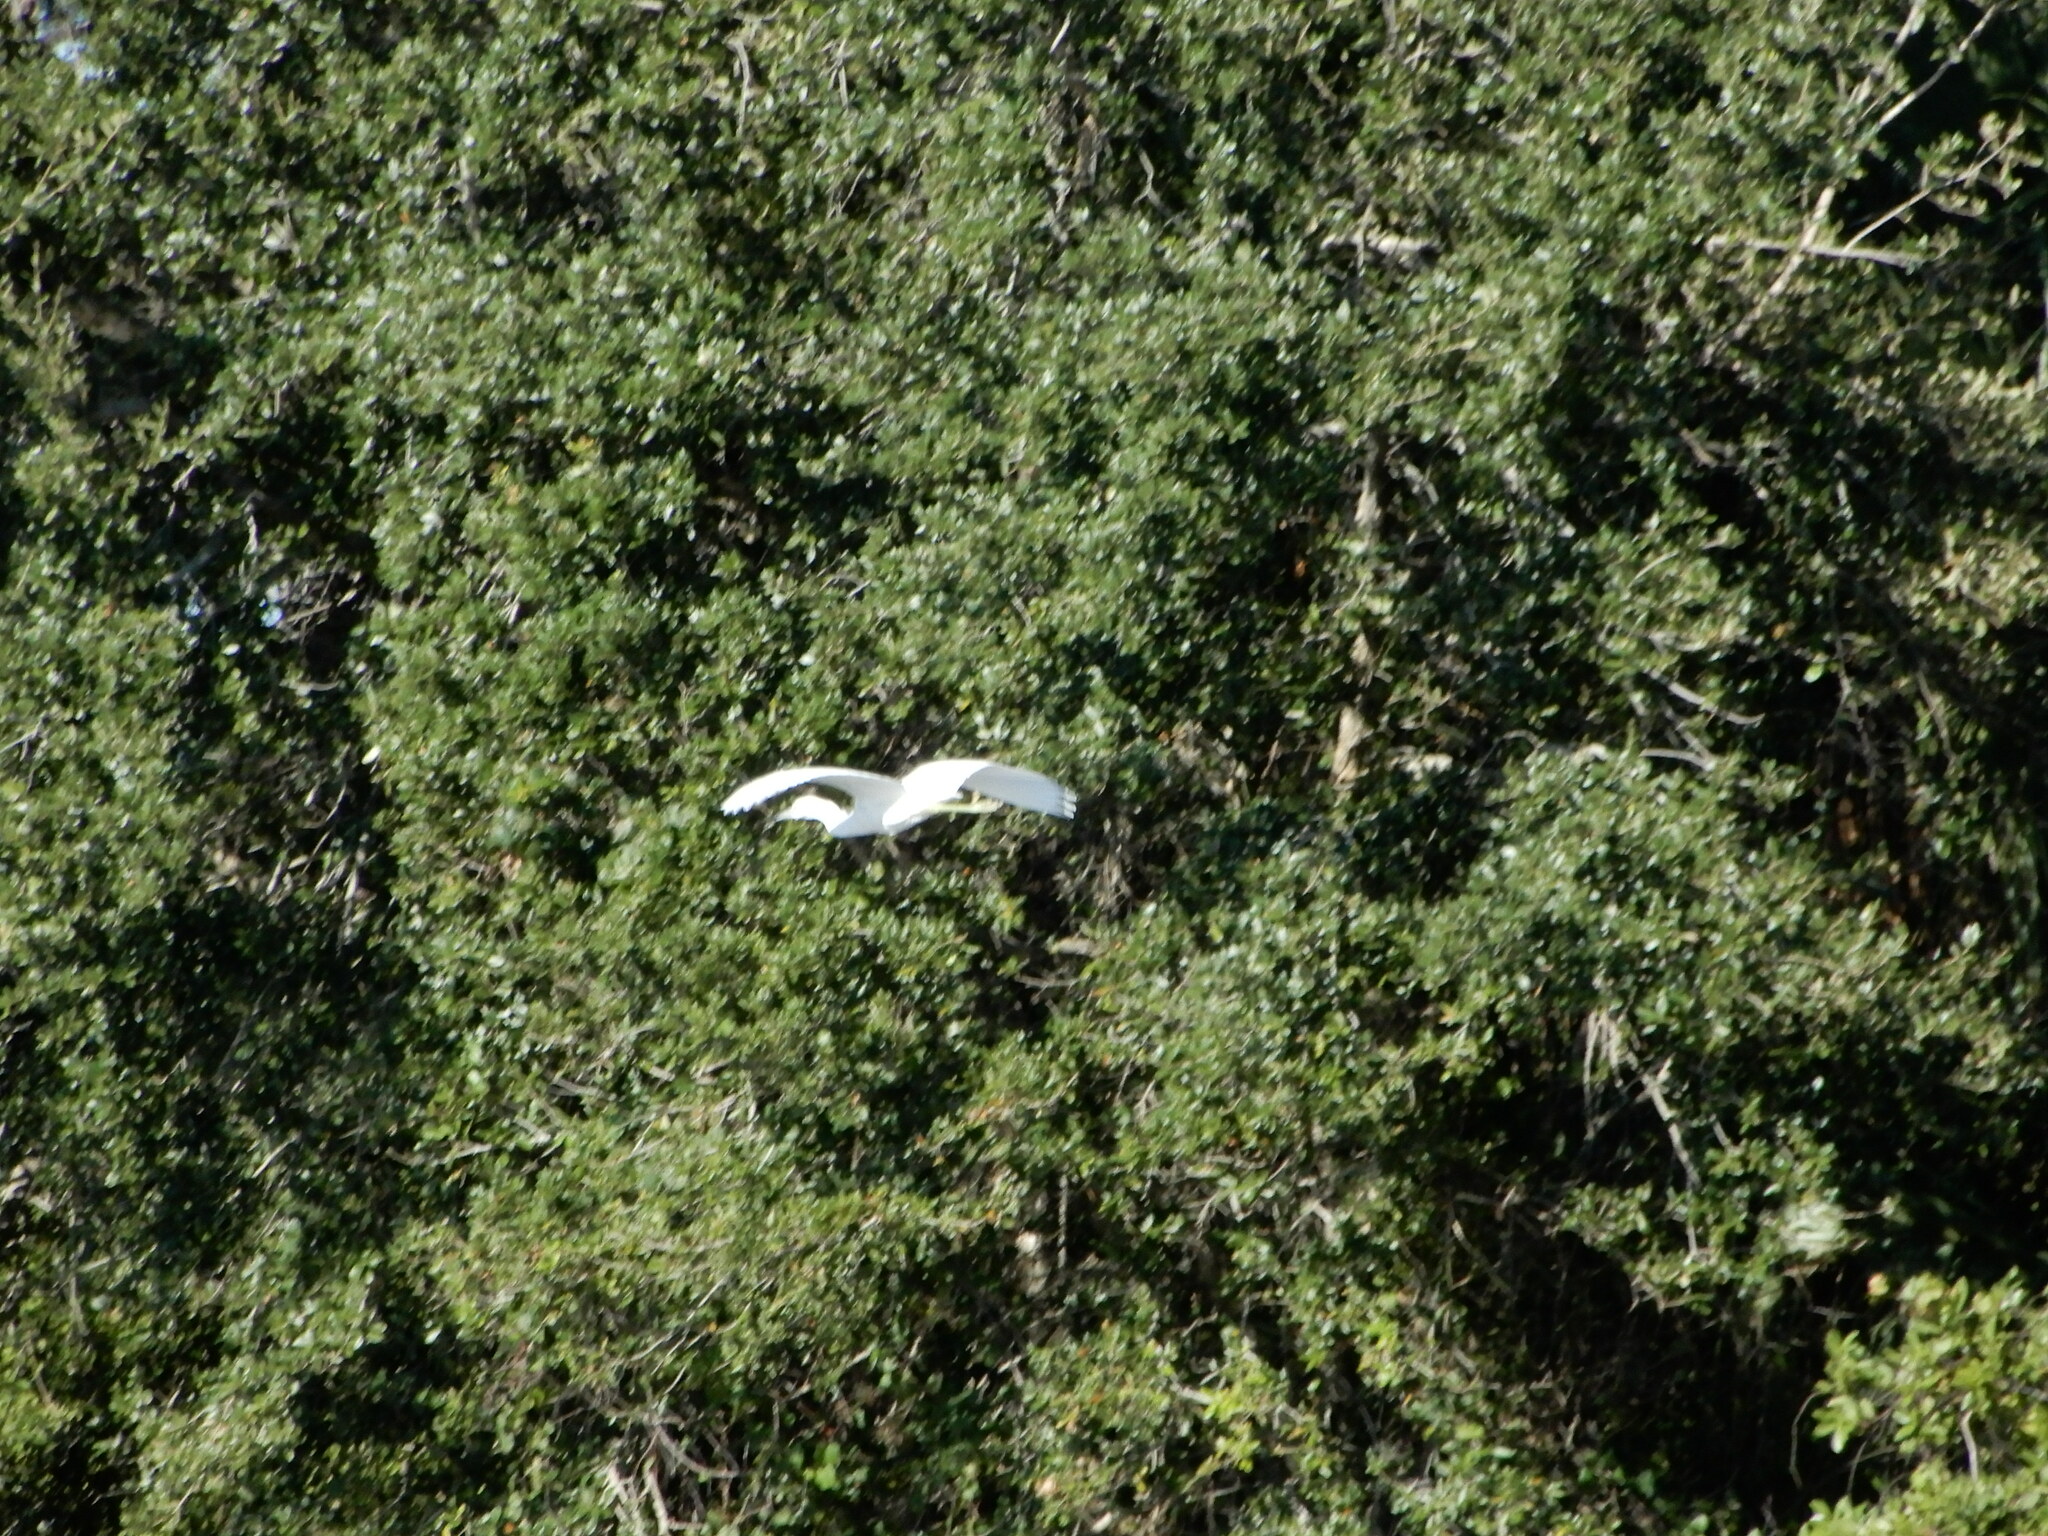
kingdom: Animalia
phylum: Chordata
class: Aves
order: Pelecaniformes
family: Ardeidae
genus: Egretta
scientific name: Egretta caerulea
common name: Little blue heron
